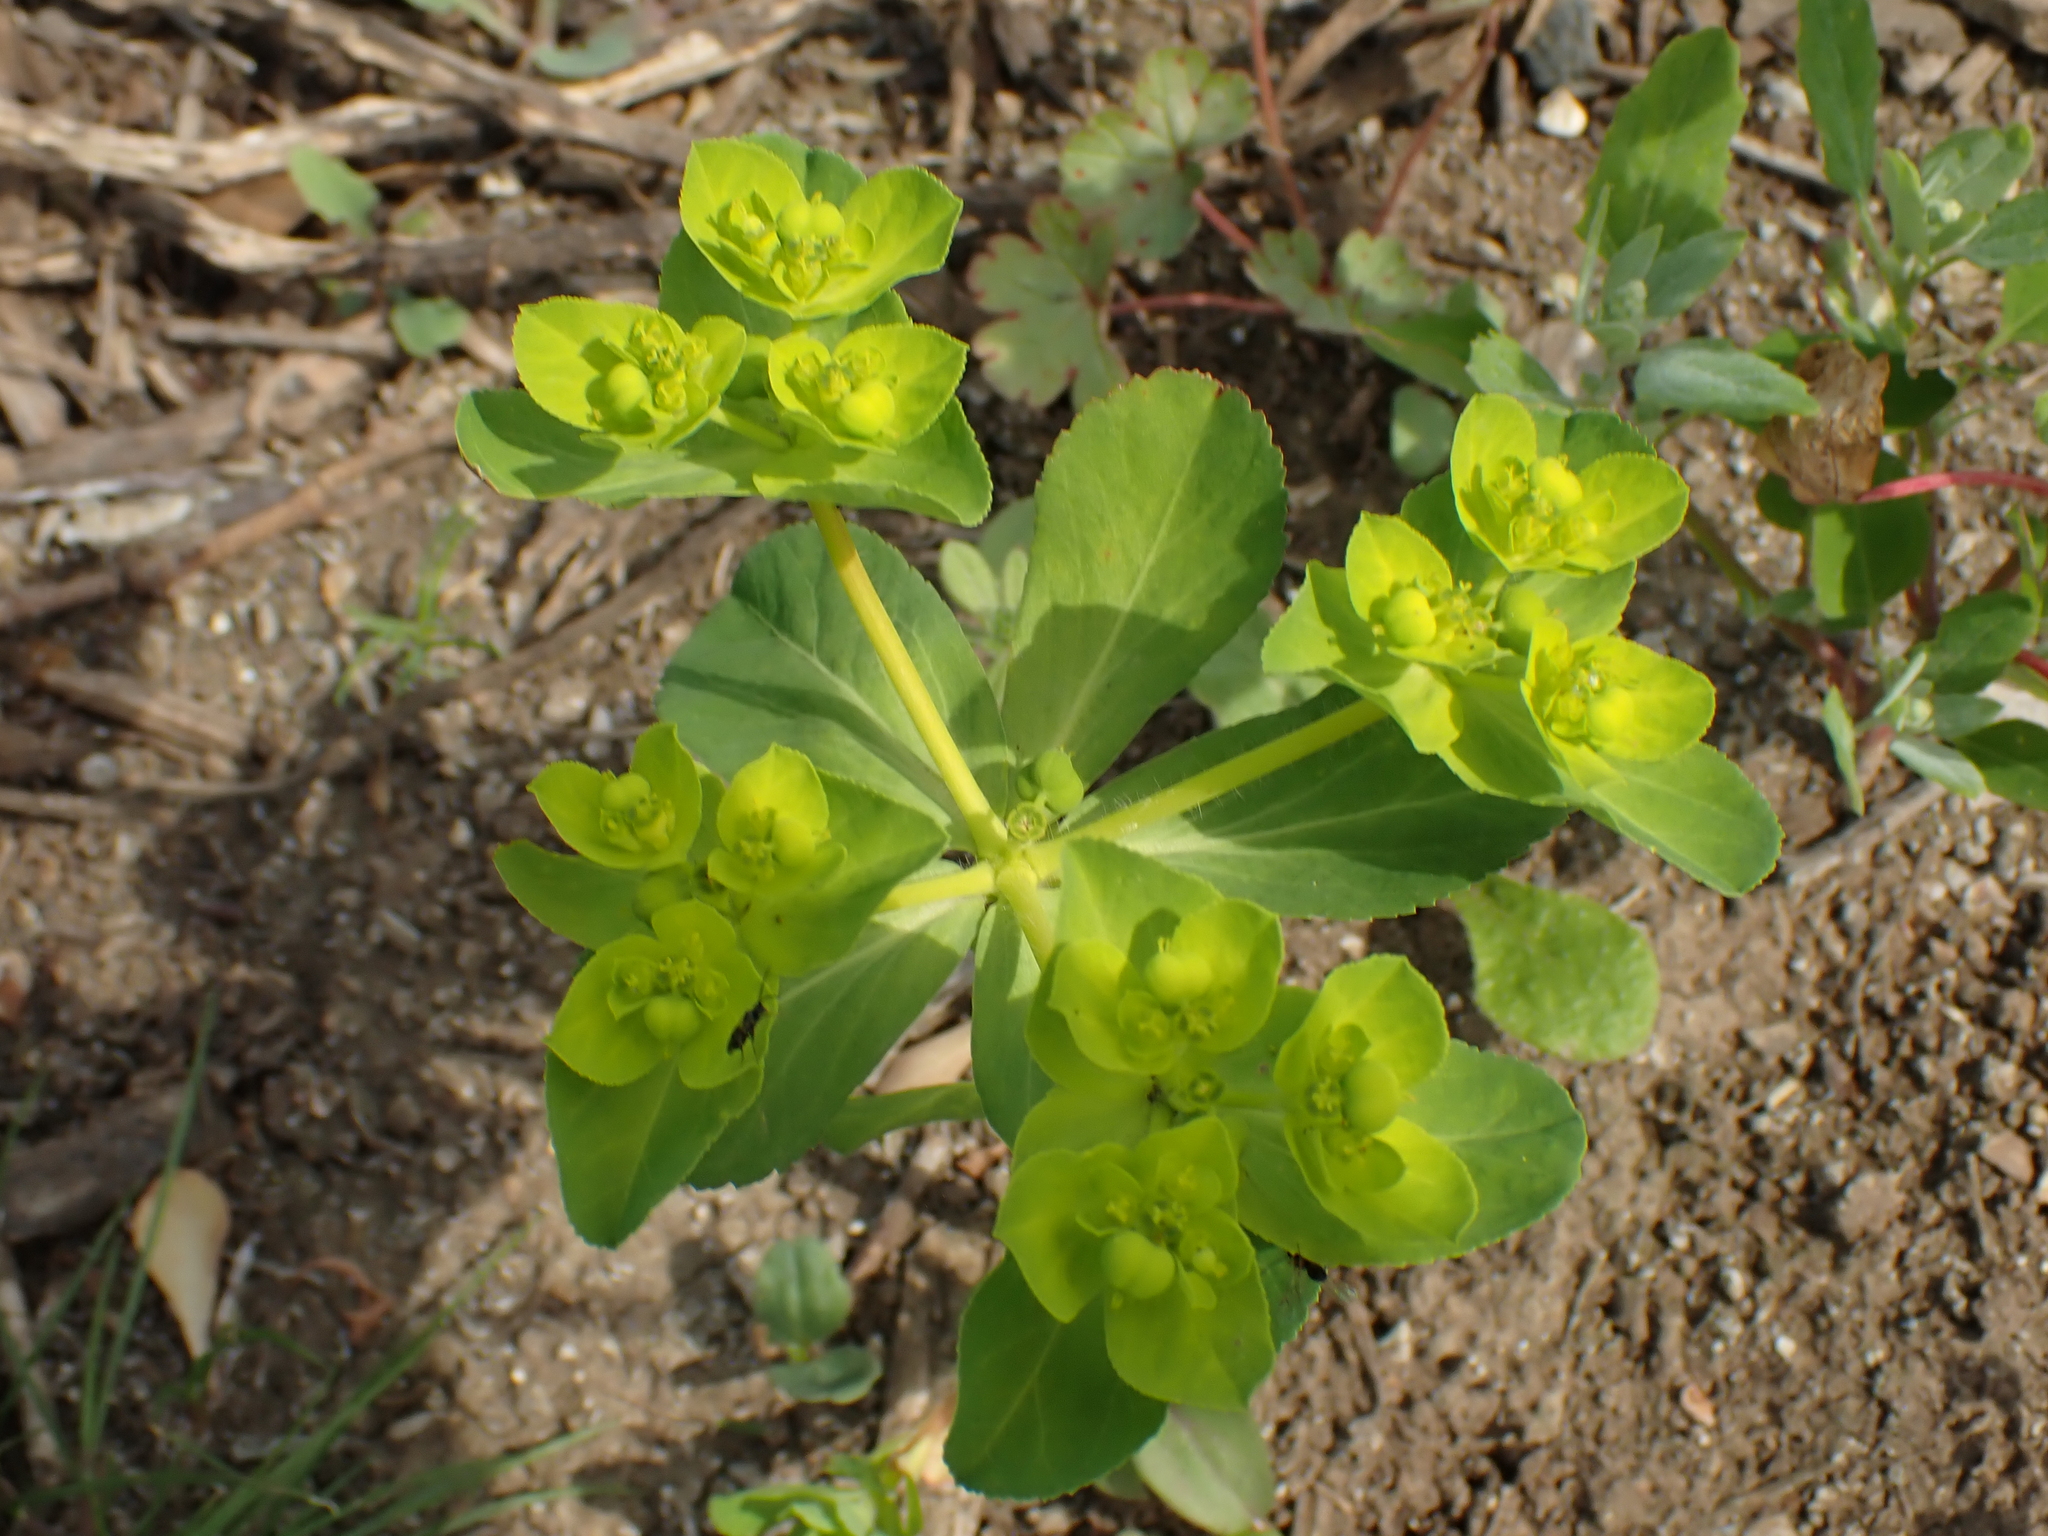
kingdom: Plantae
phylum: Tracheophyta
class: Magnoliopsida
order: Malpighiales
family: Euphorbiaceae
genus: Euphorbia
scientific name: Euphorbia helioscopia
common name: Sun spurge
